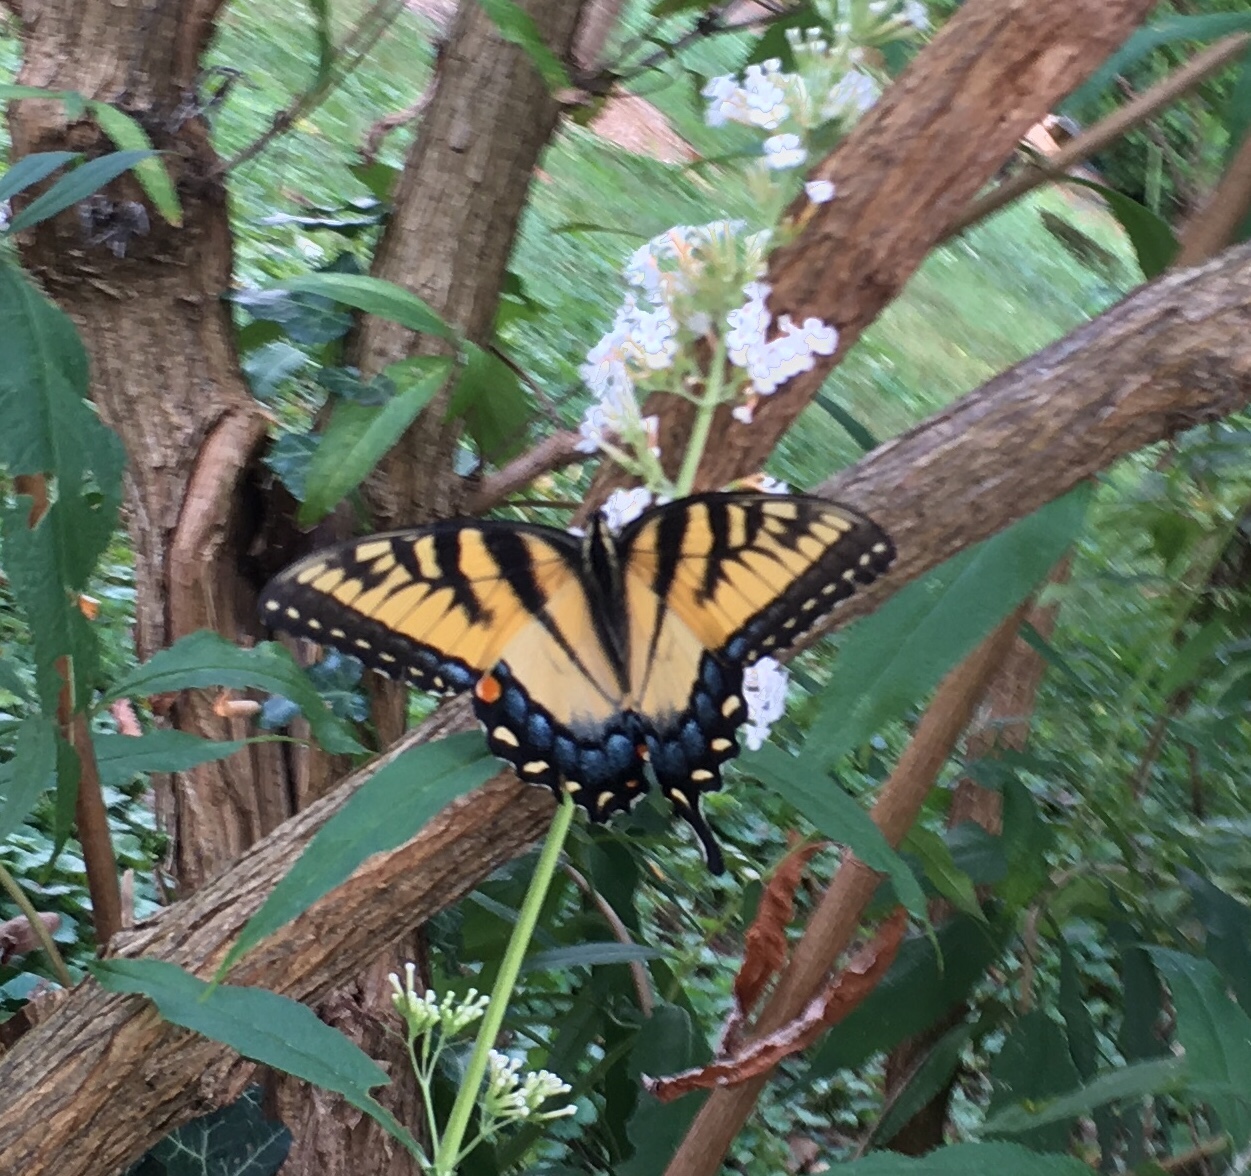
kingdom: Animalia
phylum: Arthropoda
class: Insecta
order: Lepidoptera
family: Papilionidae
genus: Papilio
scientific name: Papilio glaucus
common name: Tiger swallowtail
